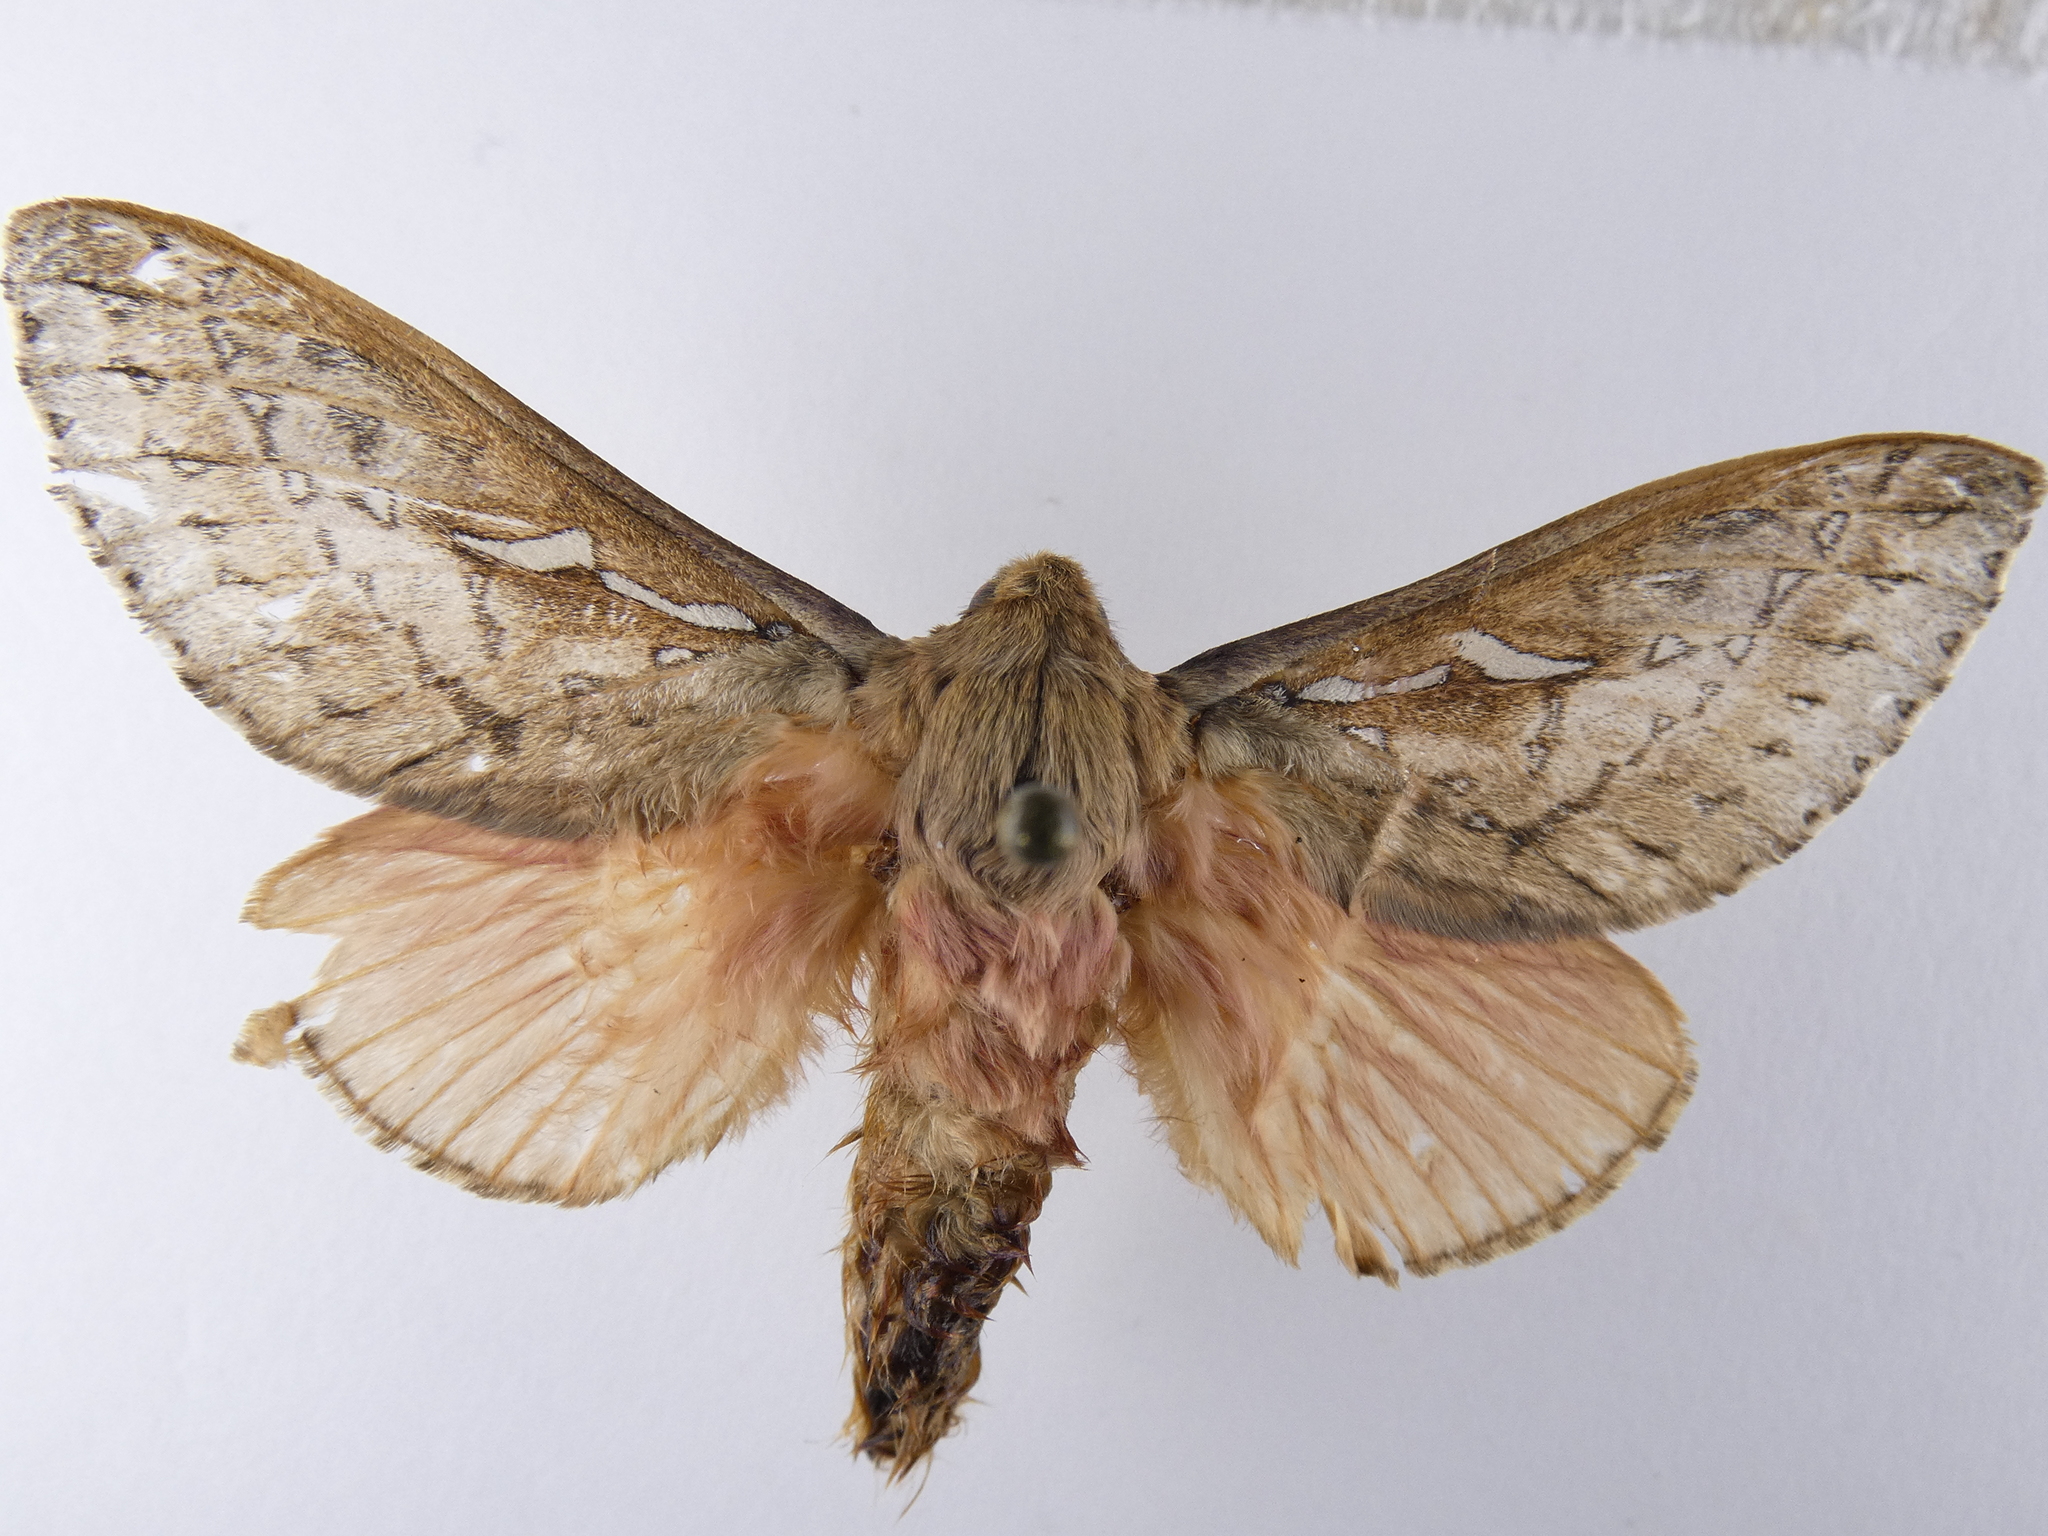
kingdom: Animalia
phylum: Arthropoda
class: Insecta
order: Lepidoptera
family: Hepialidae
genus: Wiseana
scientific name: Wiseana signata
